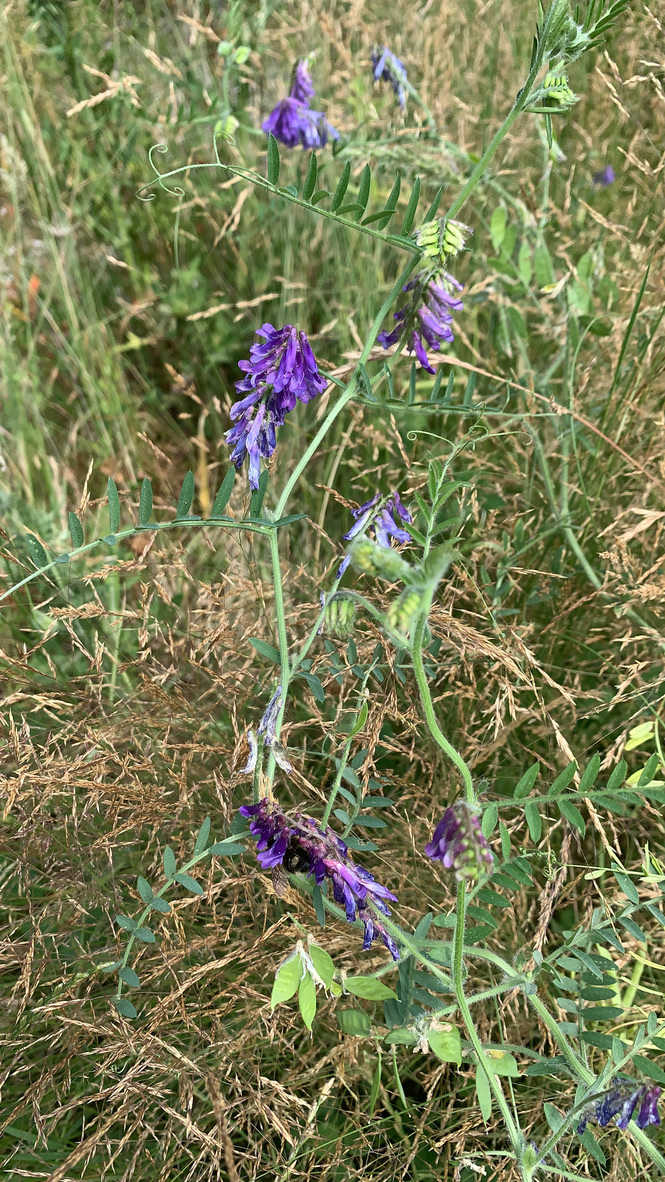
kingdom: Plantae
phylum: Tracheophyta
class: Magnoliopsida
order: Fabales
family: Fabaceae
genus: Vicia
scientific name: Vicia villosa
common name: Fodder vetch
